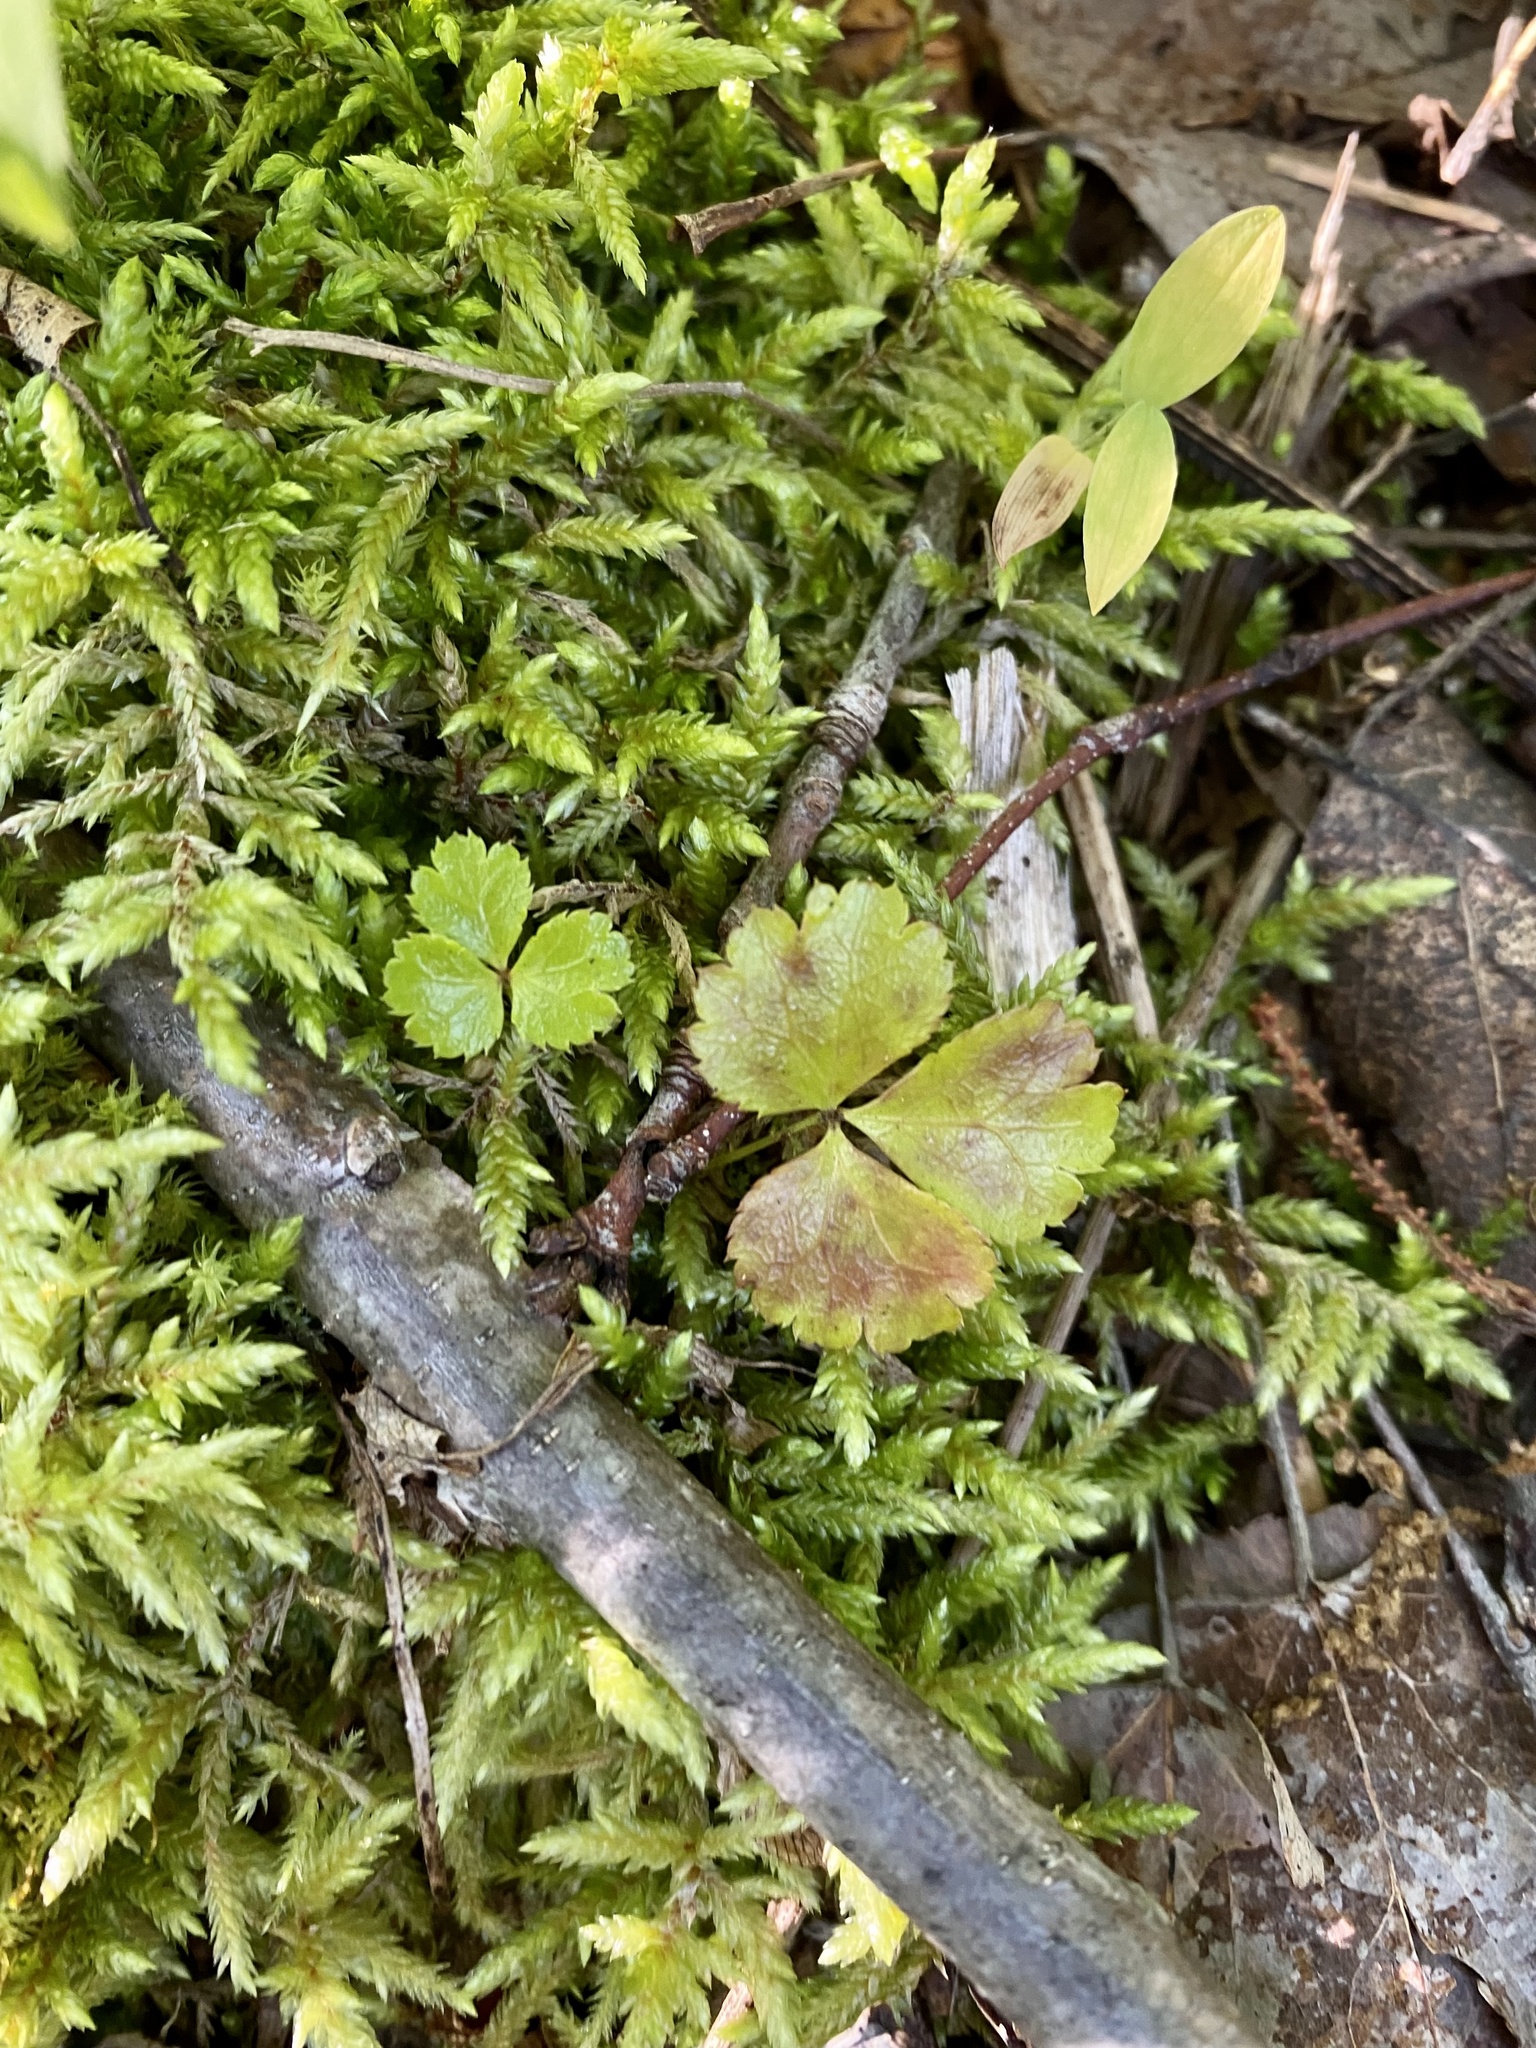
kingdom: Plantae
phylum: Tracheophyta
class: Magnoliopsida
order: Ranunculales
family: Ranunculaceae
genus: Coptis
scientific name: Coptis trifolia
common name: Canker-root
